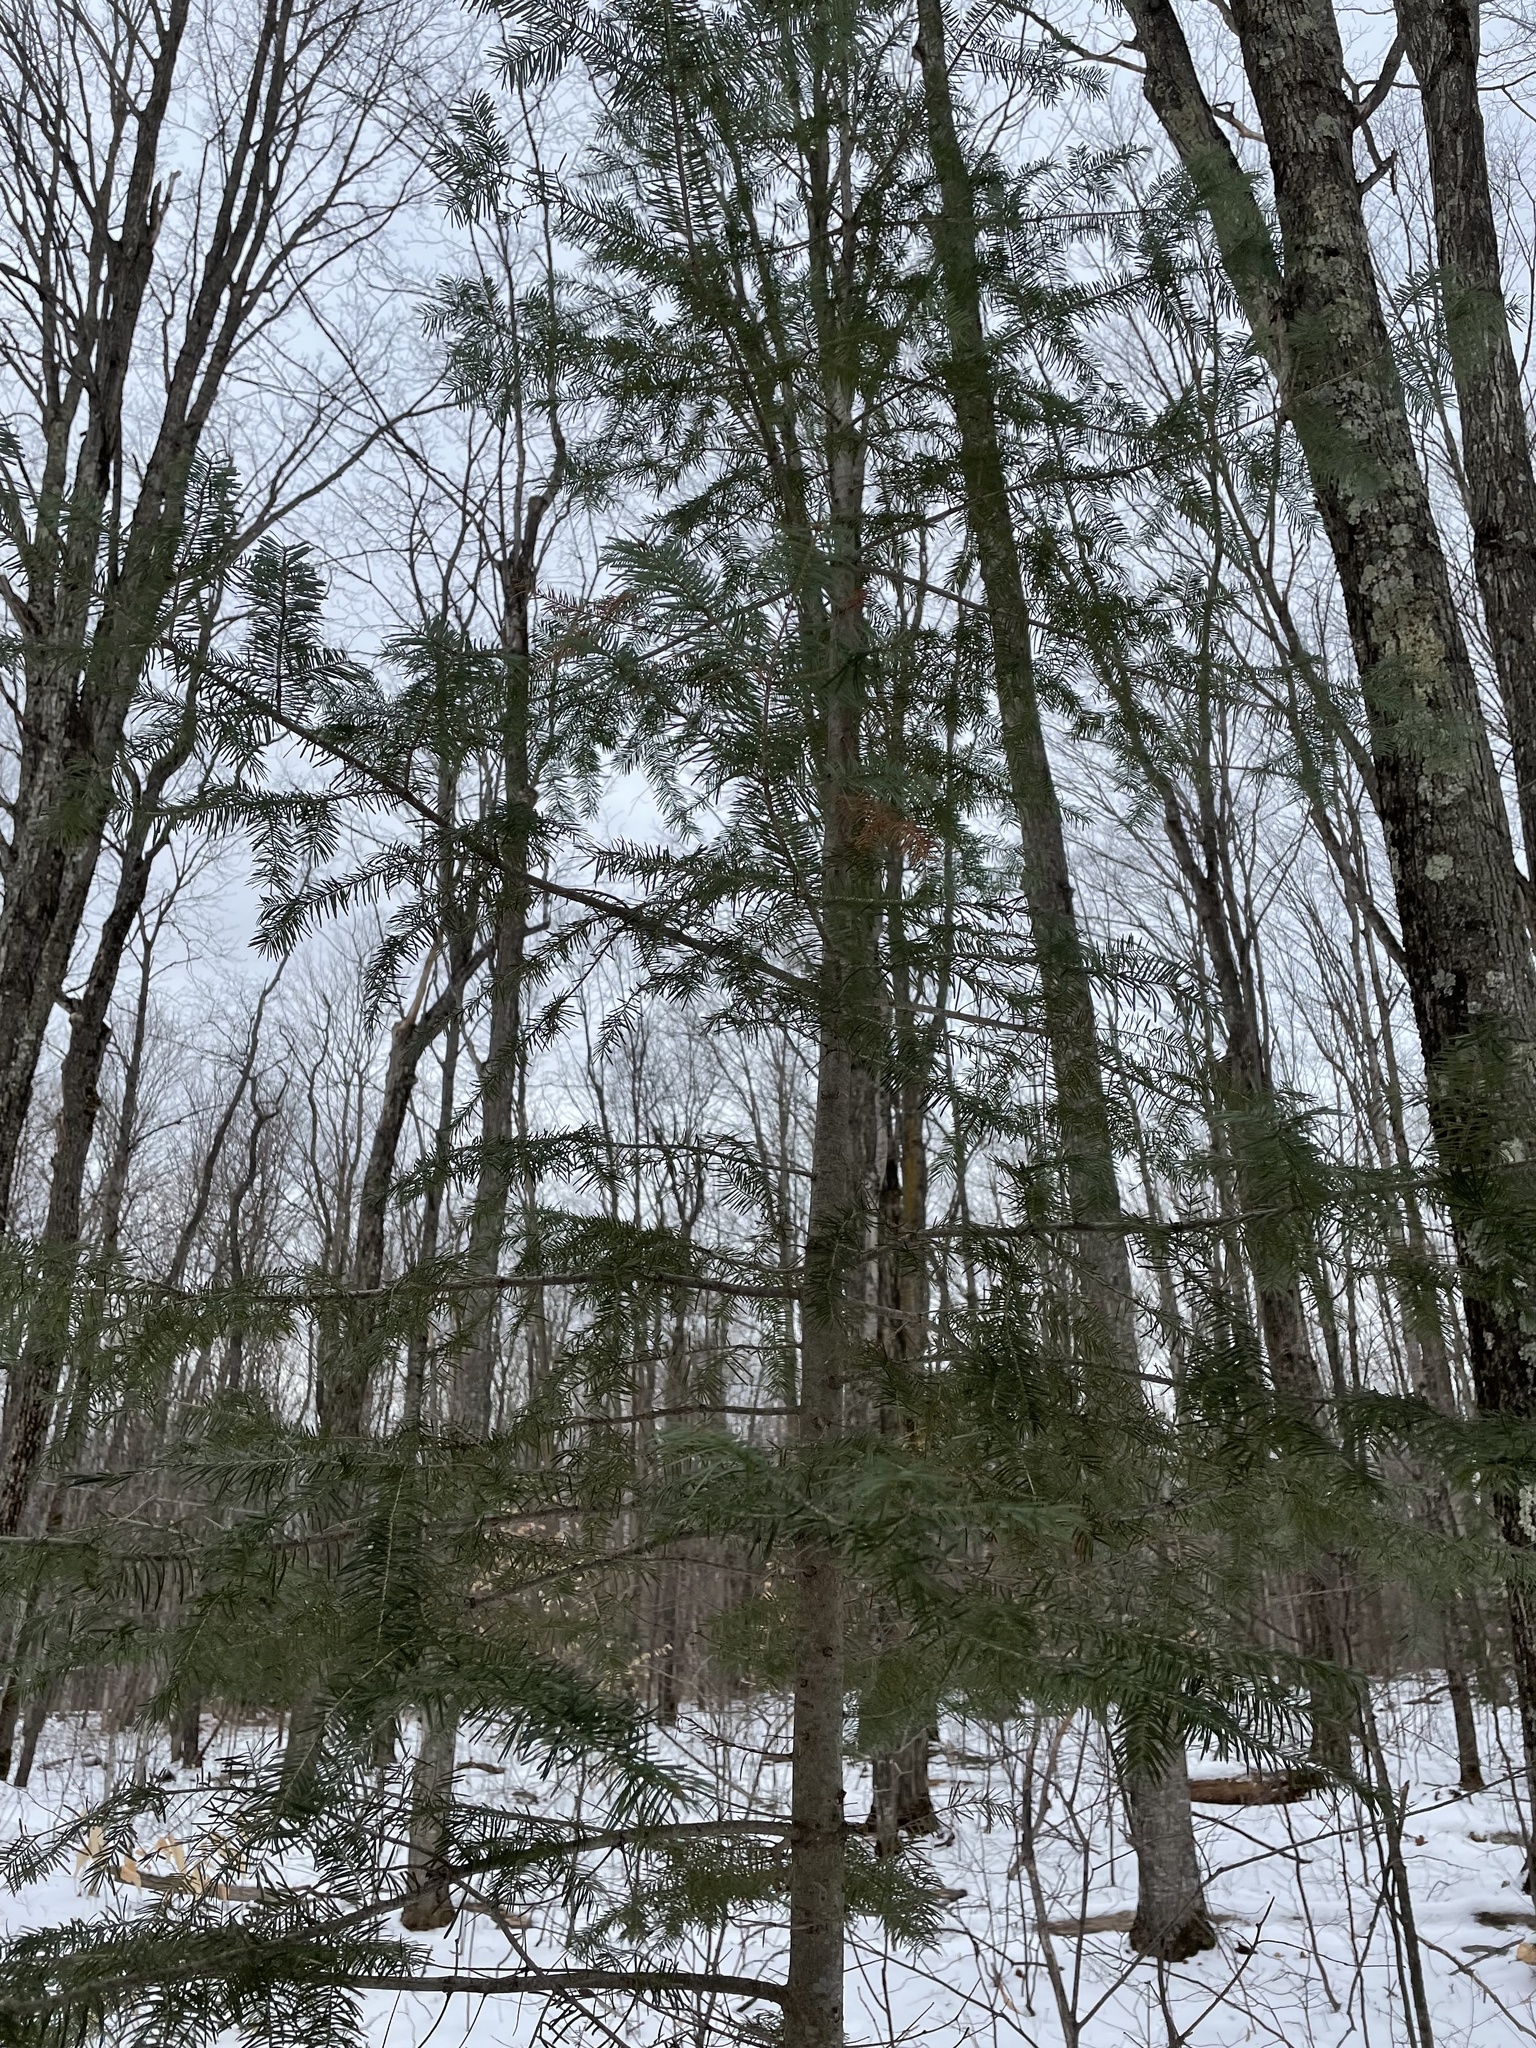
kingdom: Plantae
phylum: Tracheophyta
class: Pinopsida
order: Pinales
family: Pinaceae
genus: Abies
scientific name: Abies balsamea
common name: Balsam fir
